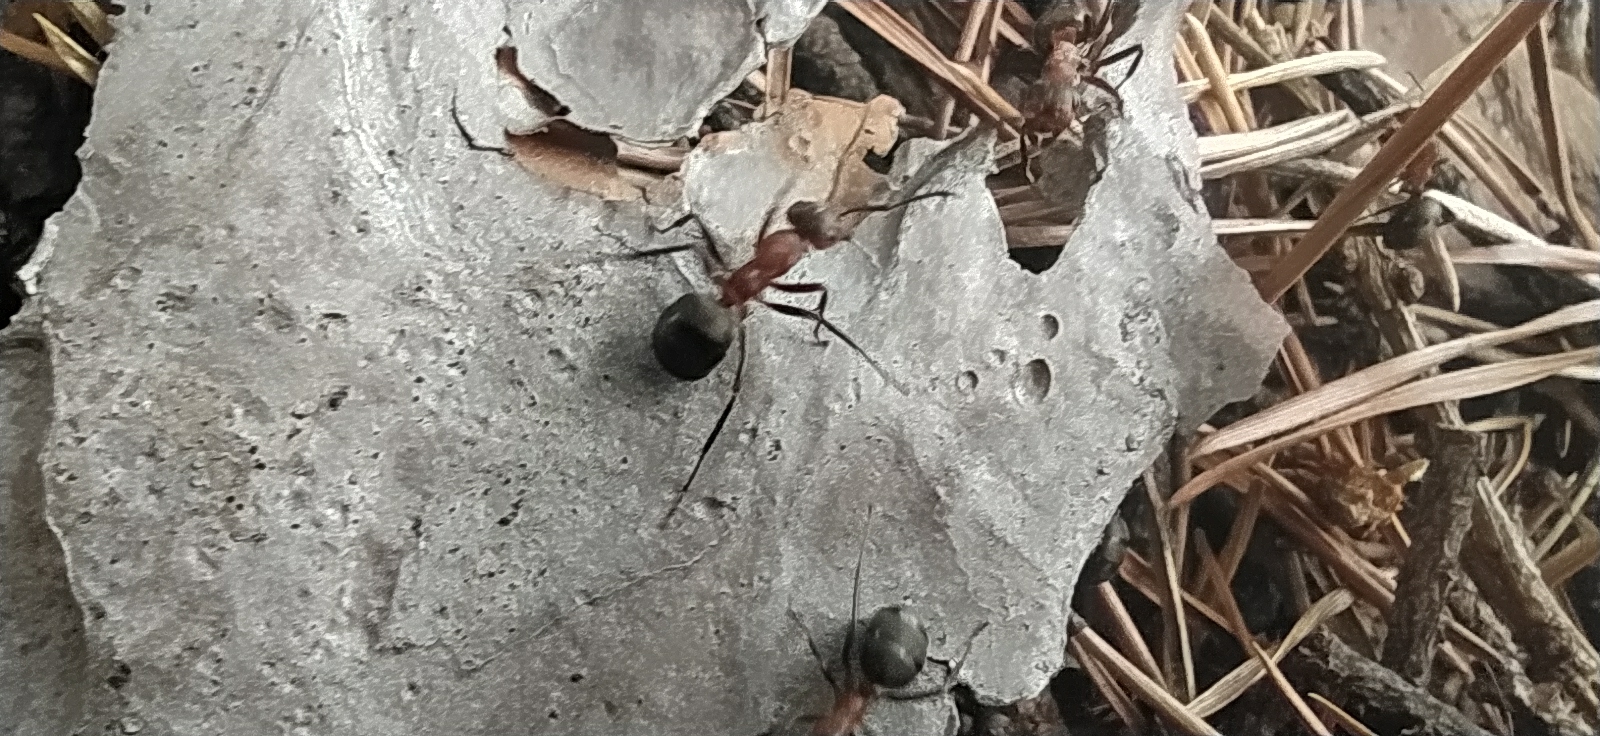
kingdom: Animalia
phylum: Arthropoda
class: Insecta
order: Hymenoptera
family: Formicidae
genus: Formica
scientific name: Formica
